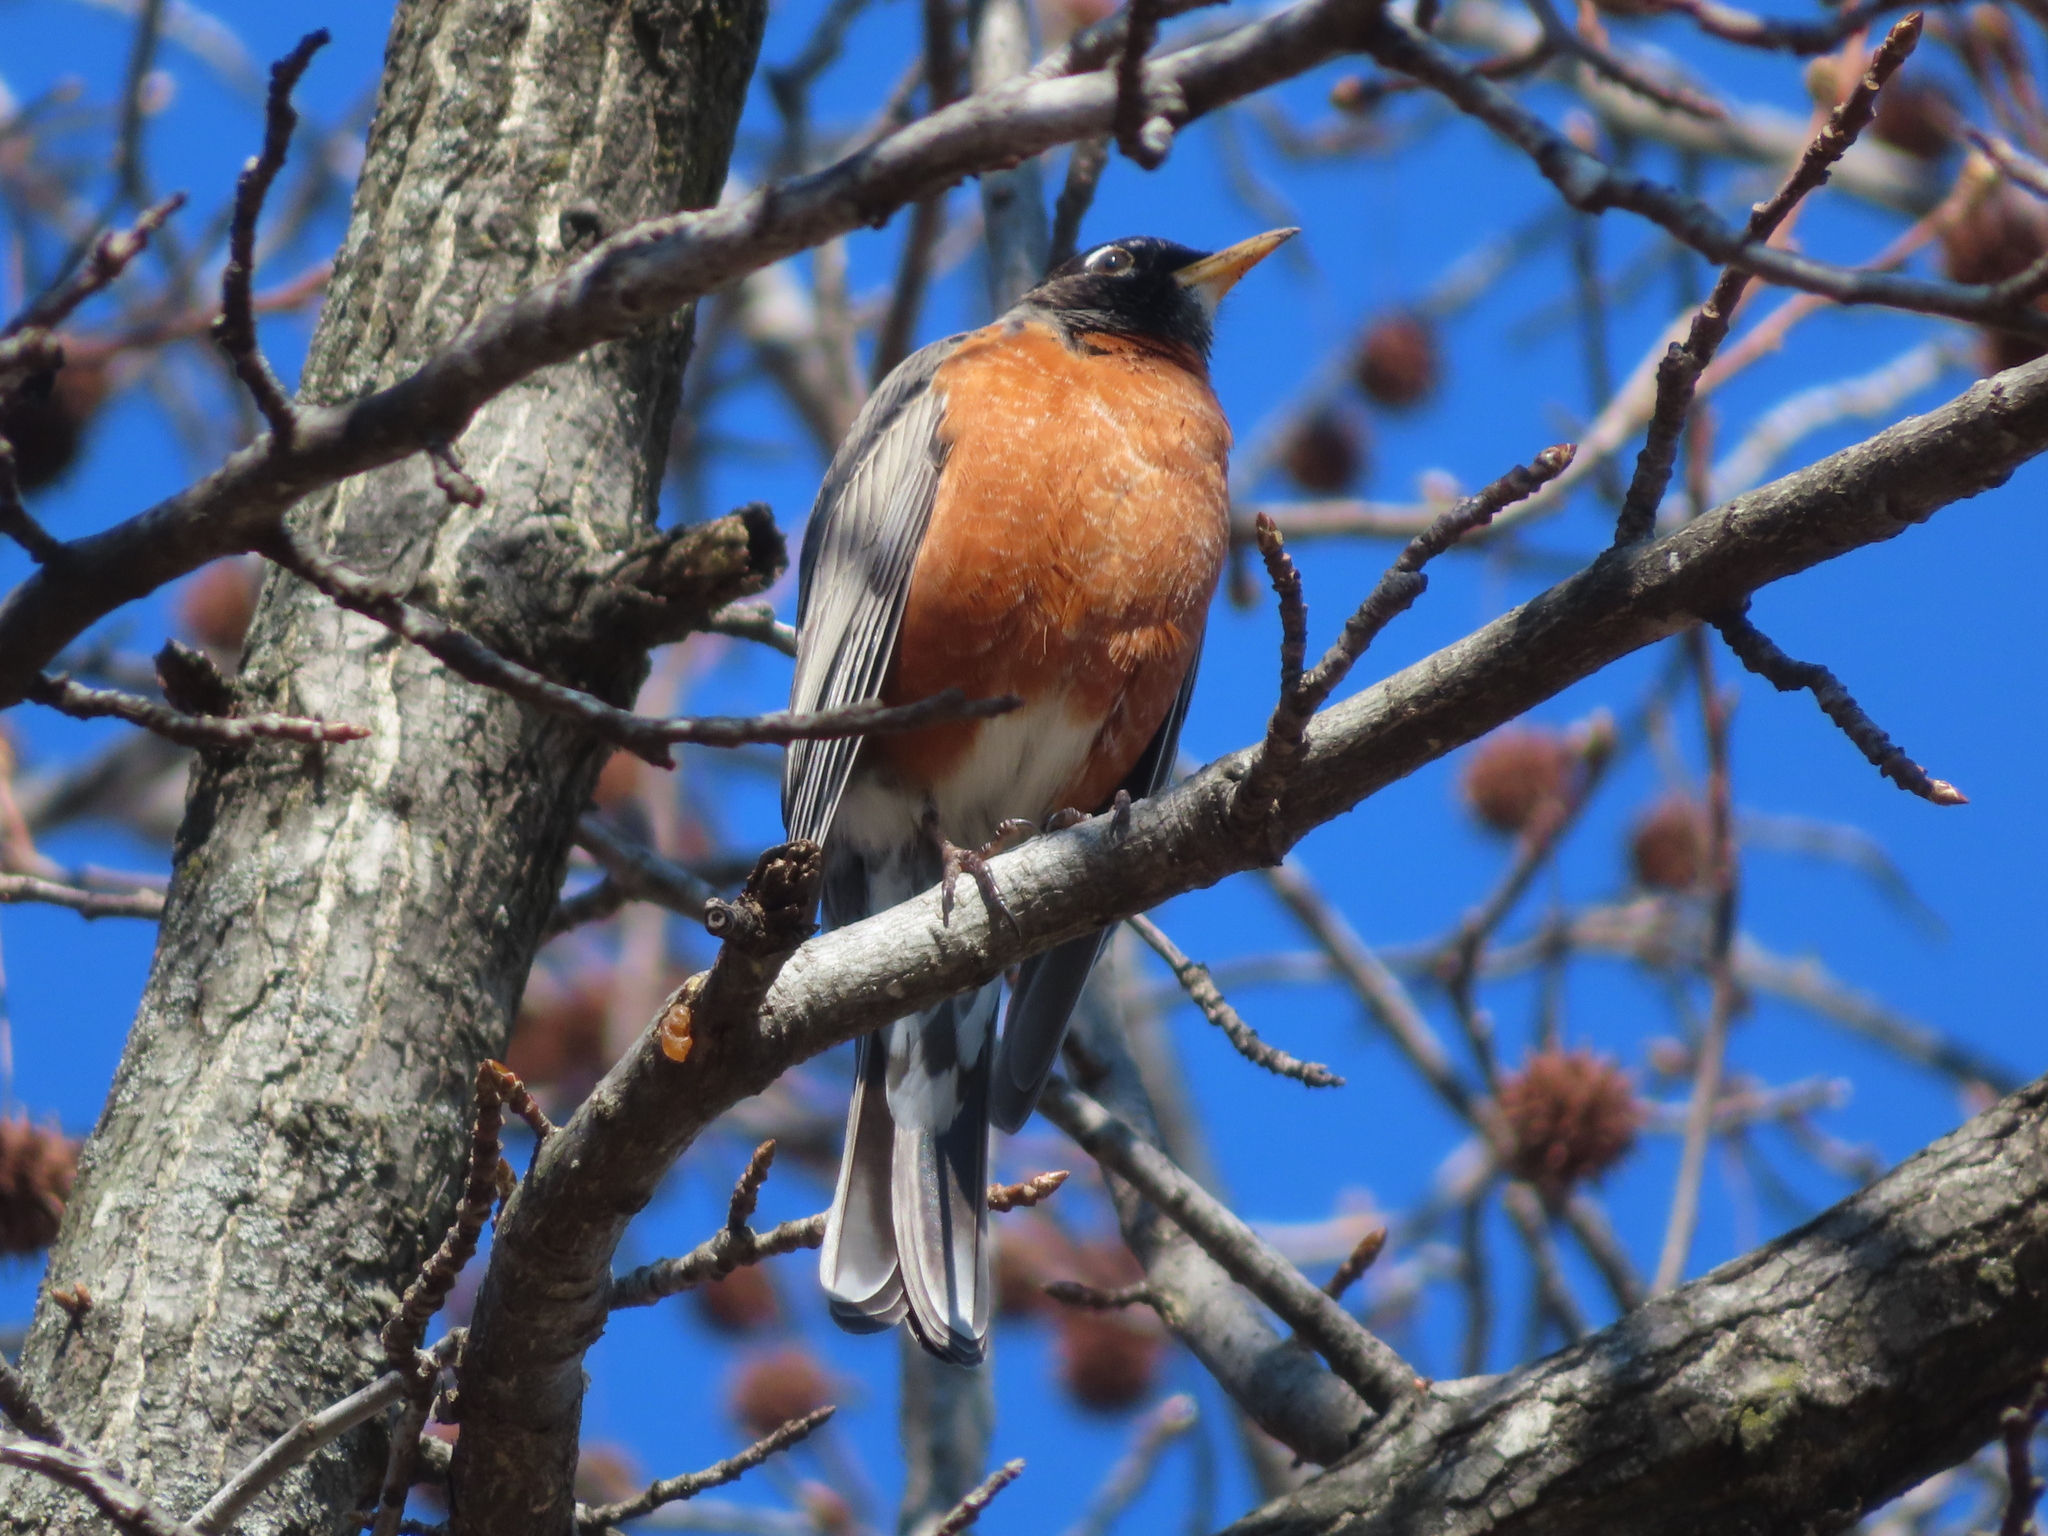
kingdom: Animalia
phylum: Chordata
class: Aves
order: Passeriformes
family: Turdidae
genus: Turdus
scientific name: Turdus migratorius
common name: American robin
